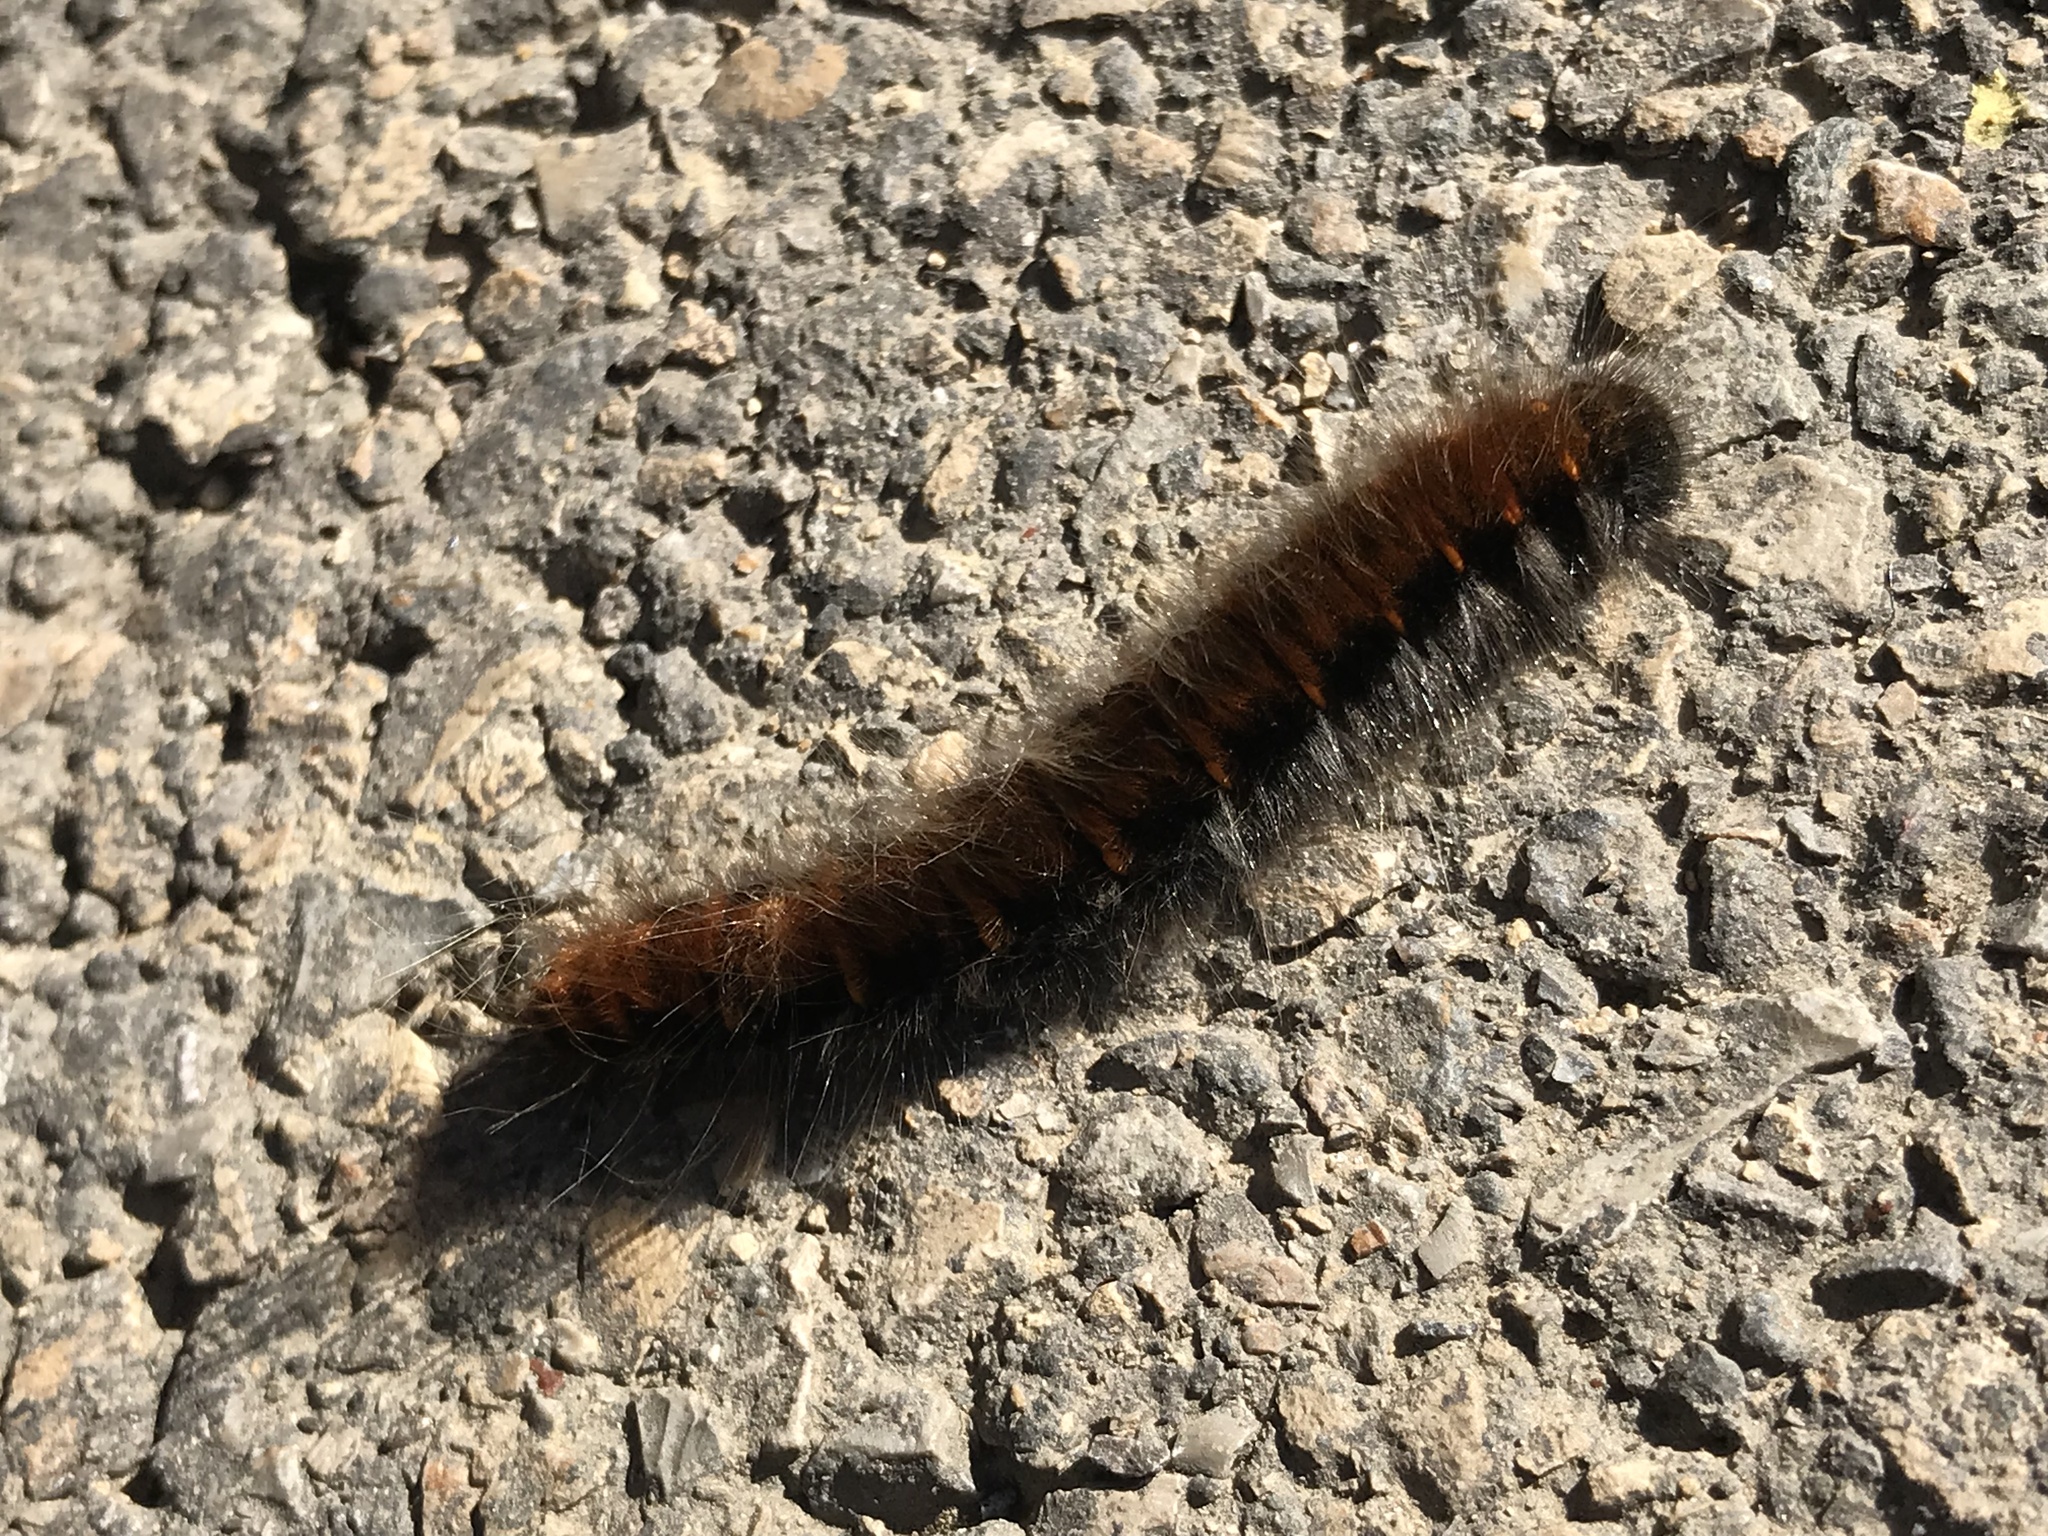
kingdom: Animalia
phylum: Arthropoda
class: Insecta
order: Lepidoptera
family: Lasiocampidae
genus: Macrothylacia
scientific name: Macrothylacia rubi
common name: Fox moth
